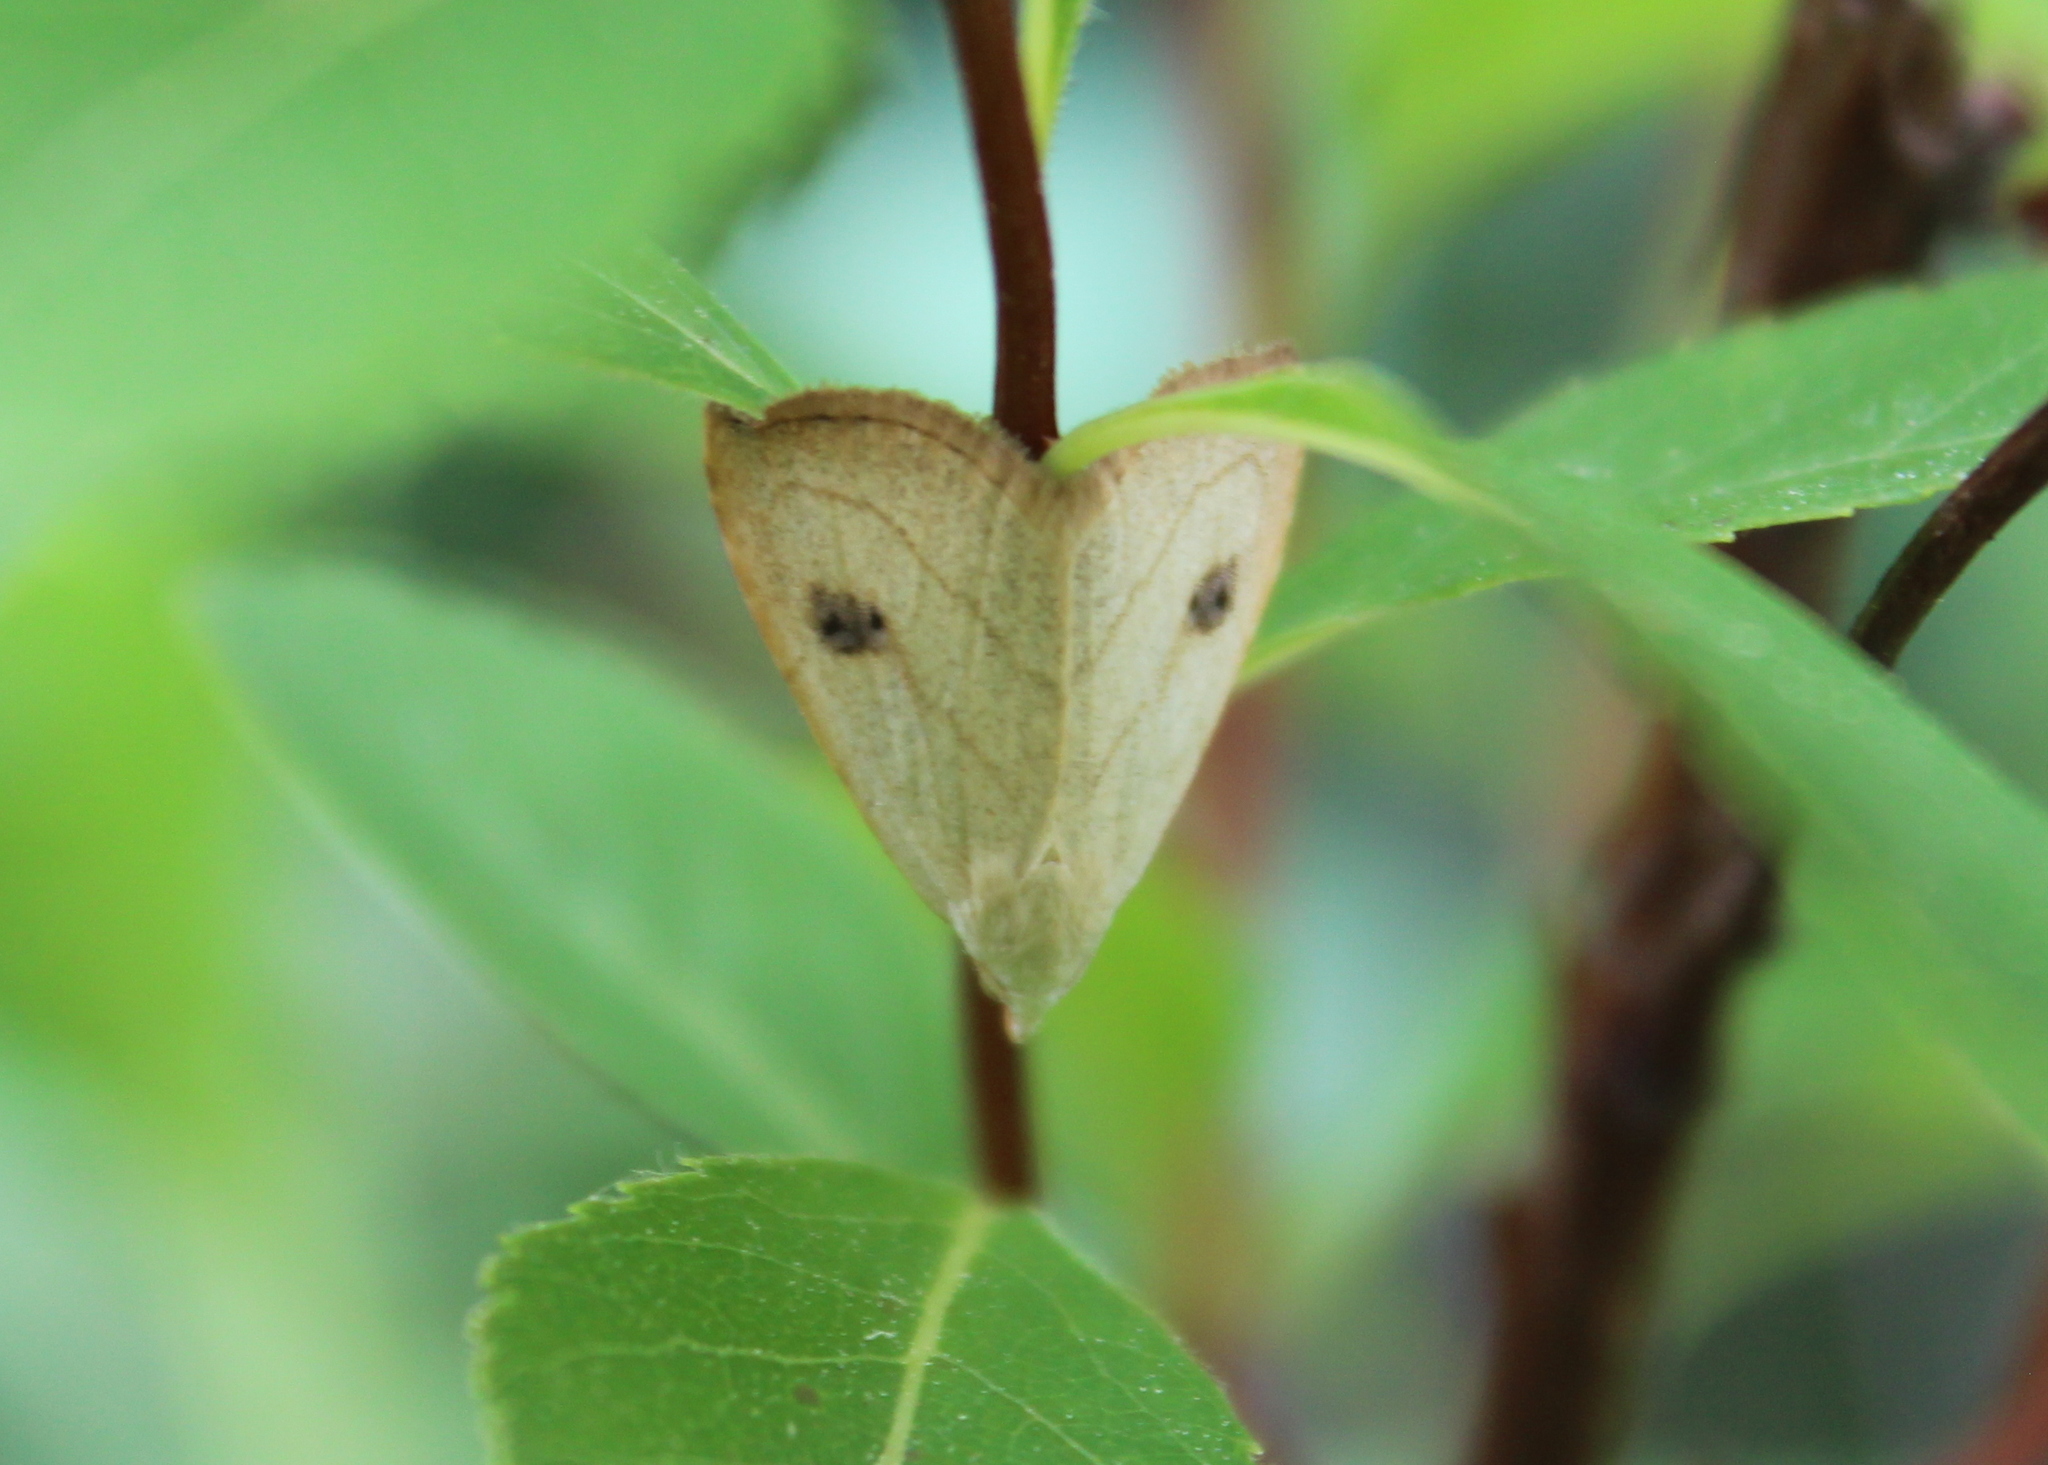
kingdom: Animalia
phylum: Arthropoda
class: Insecta
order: Lepidoptera
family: Erebidae
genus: Rivula
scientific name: Rivula propinqualis
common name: Spotted grass moth
